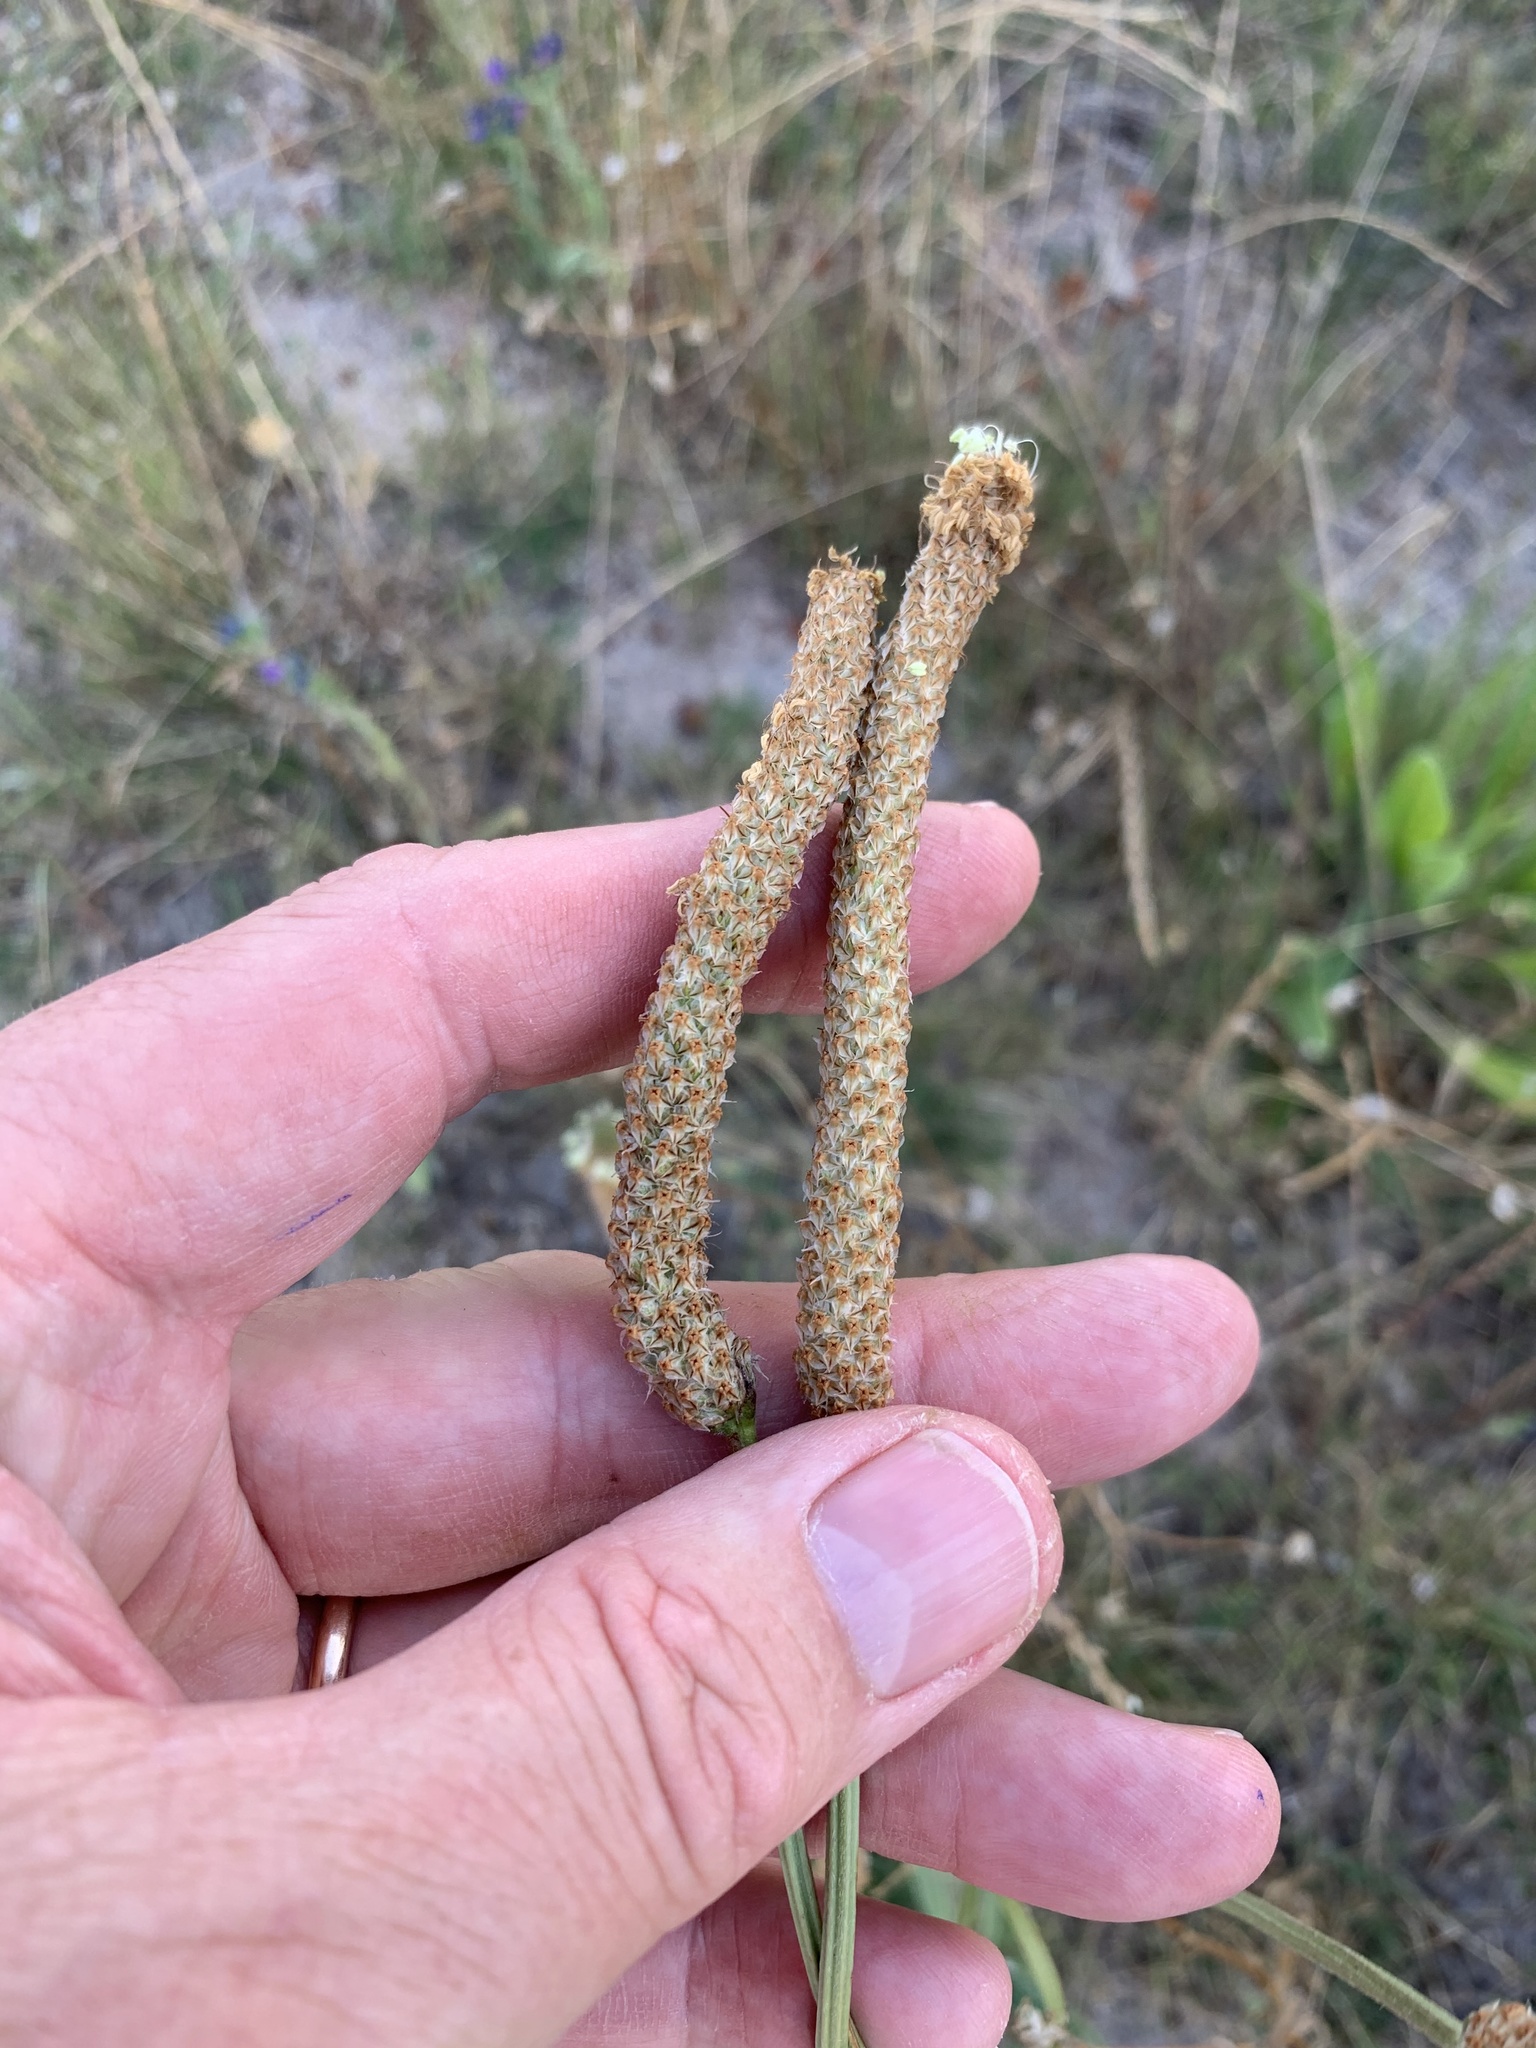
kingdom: Plantae
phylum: Tracheophyta
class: Magnoliopsida
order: Lamiales
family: Plantaginaceae
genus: Plantago
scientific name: Plantago lanceolata
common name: Ribwort plantain
